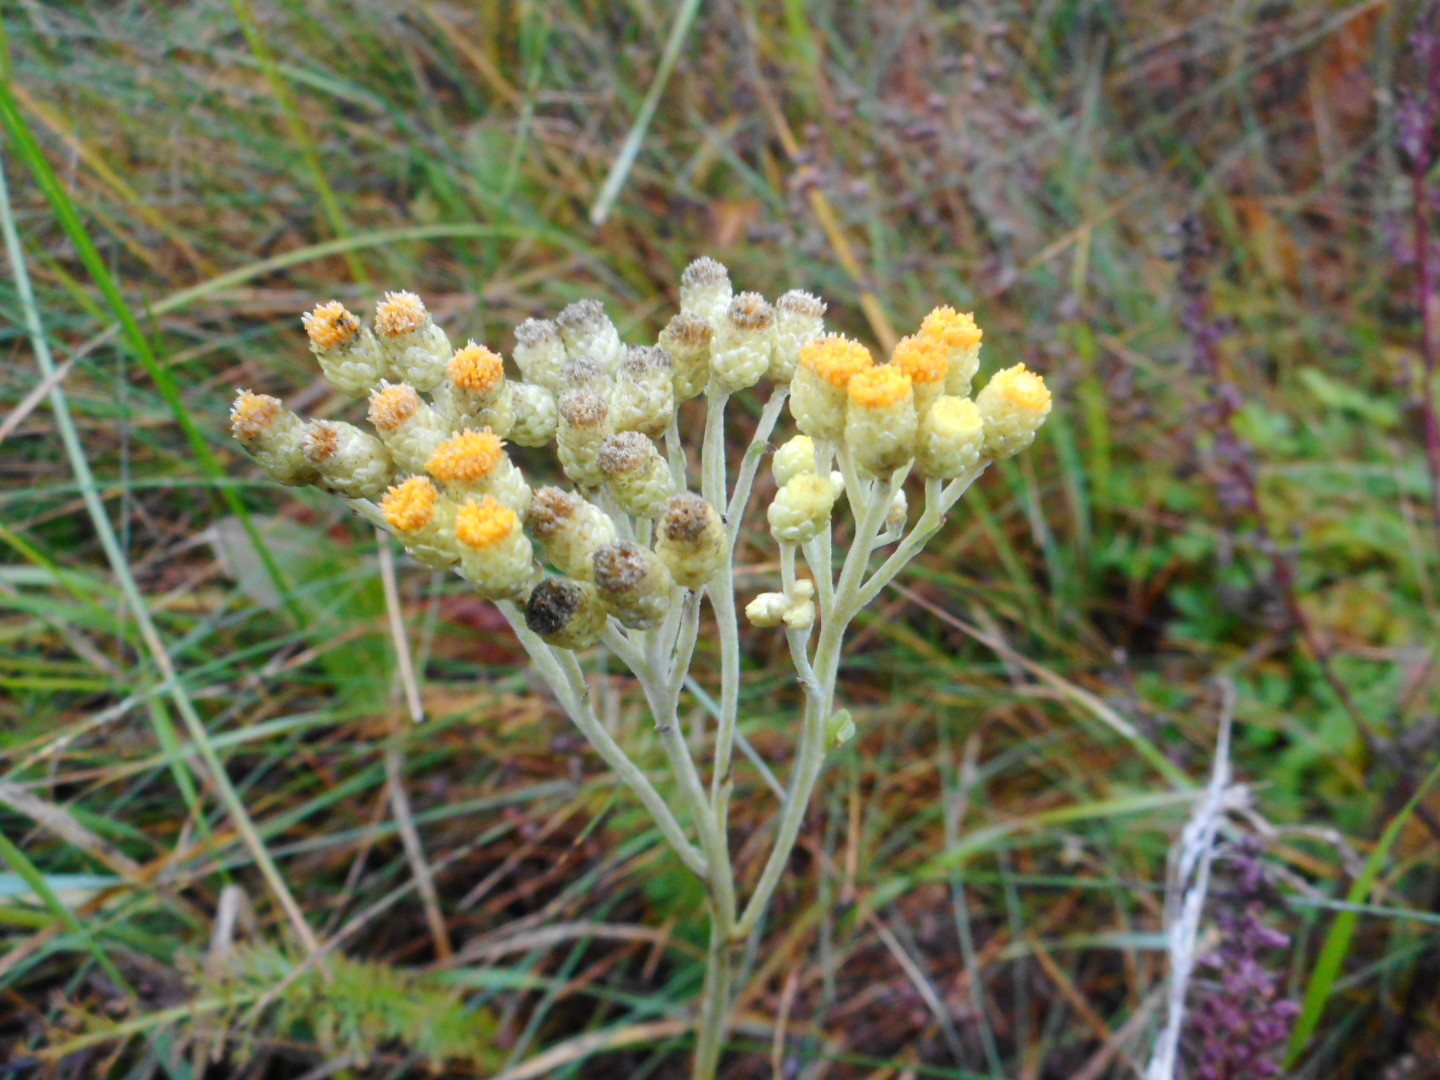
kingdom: Plantae
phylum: Tracheophyta
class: Magnoliopsida
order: Asterales
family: Asteraceae
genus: Helichrysum
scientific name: Helichrysum arenarium
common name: Strawflower
